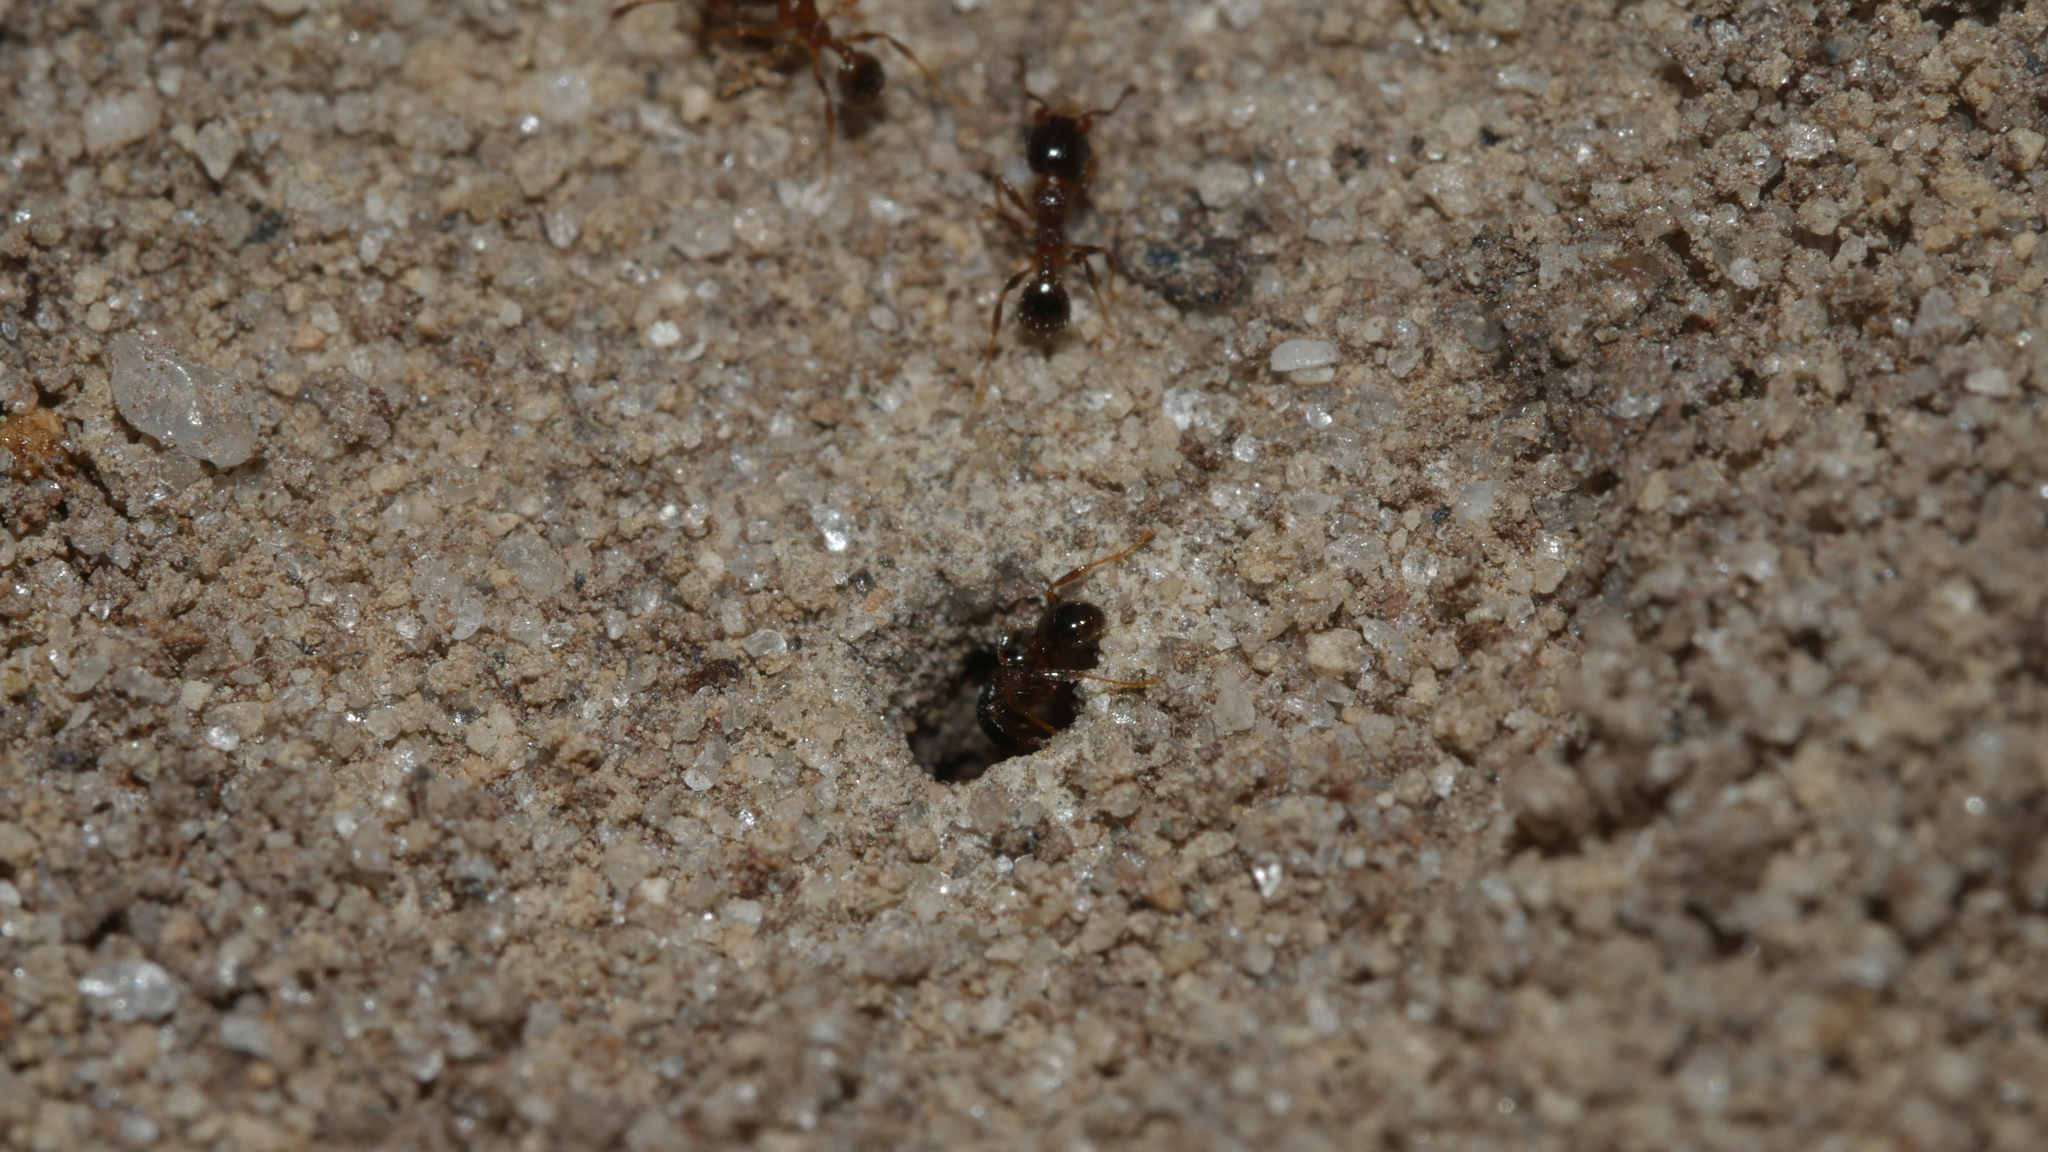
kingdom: Animalia
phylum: Arthropoda
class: Insecta
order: Hymenoptera
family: Formicidae
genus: Pheidole
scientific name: Pheidole bicarinata
